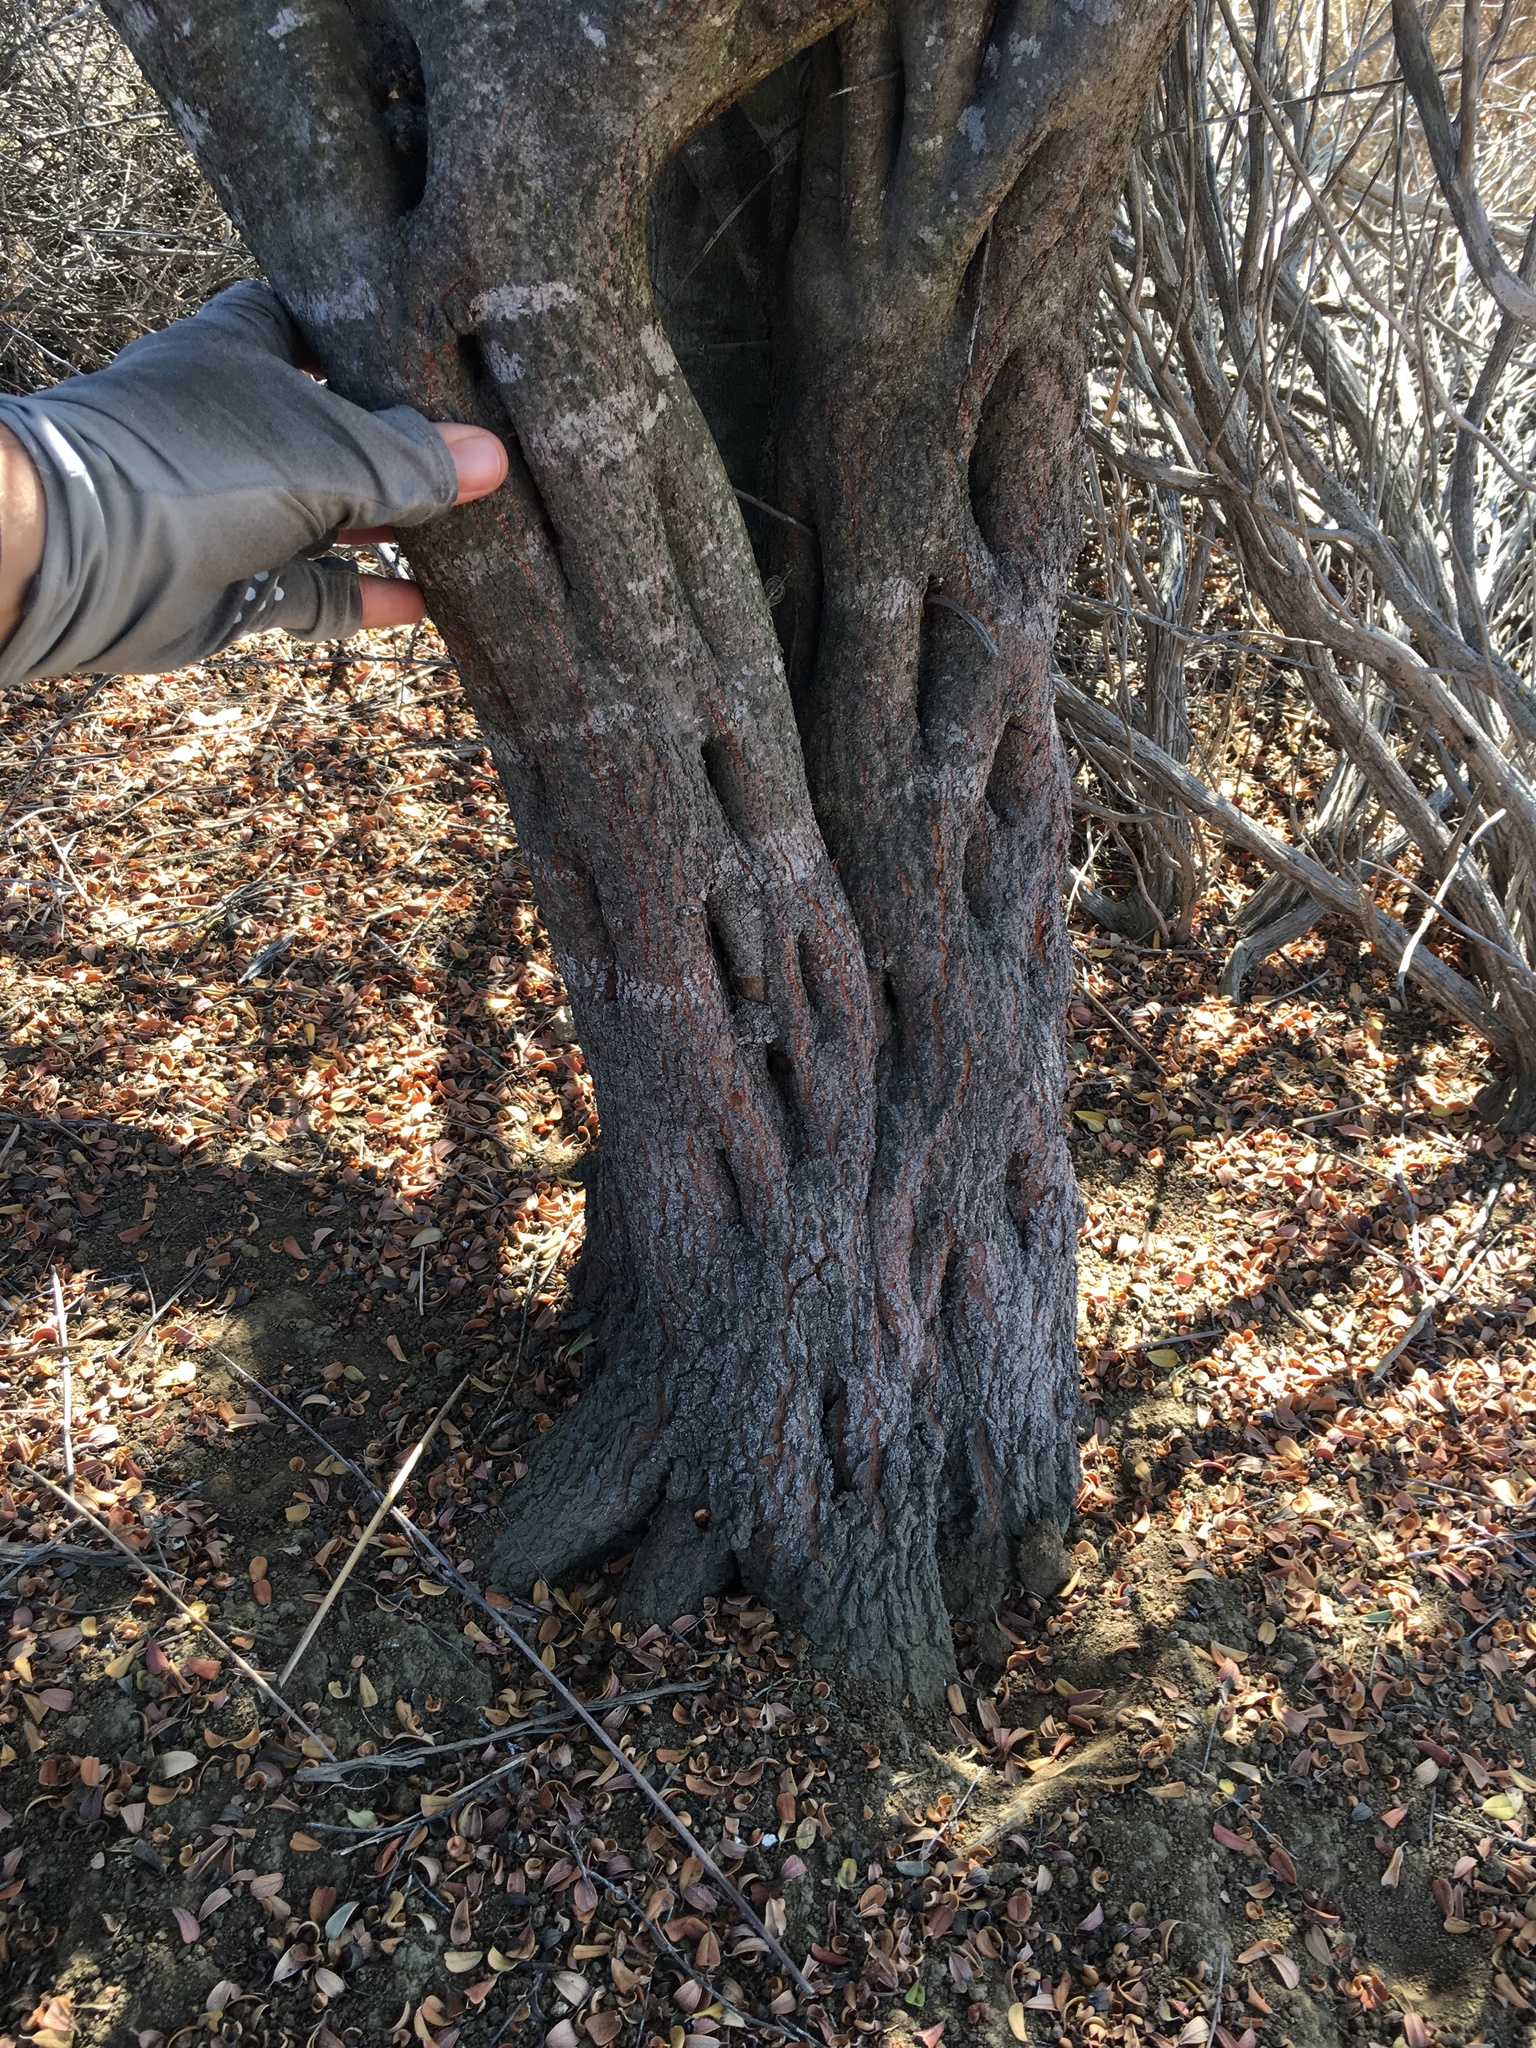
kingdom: Plantae
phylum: Tracheophyta
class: Magnoliopsida
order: Rosales
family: Rhamnaceae
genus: Ceanothus
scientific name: Ceanothus megacarpus
